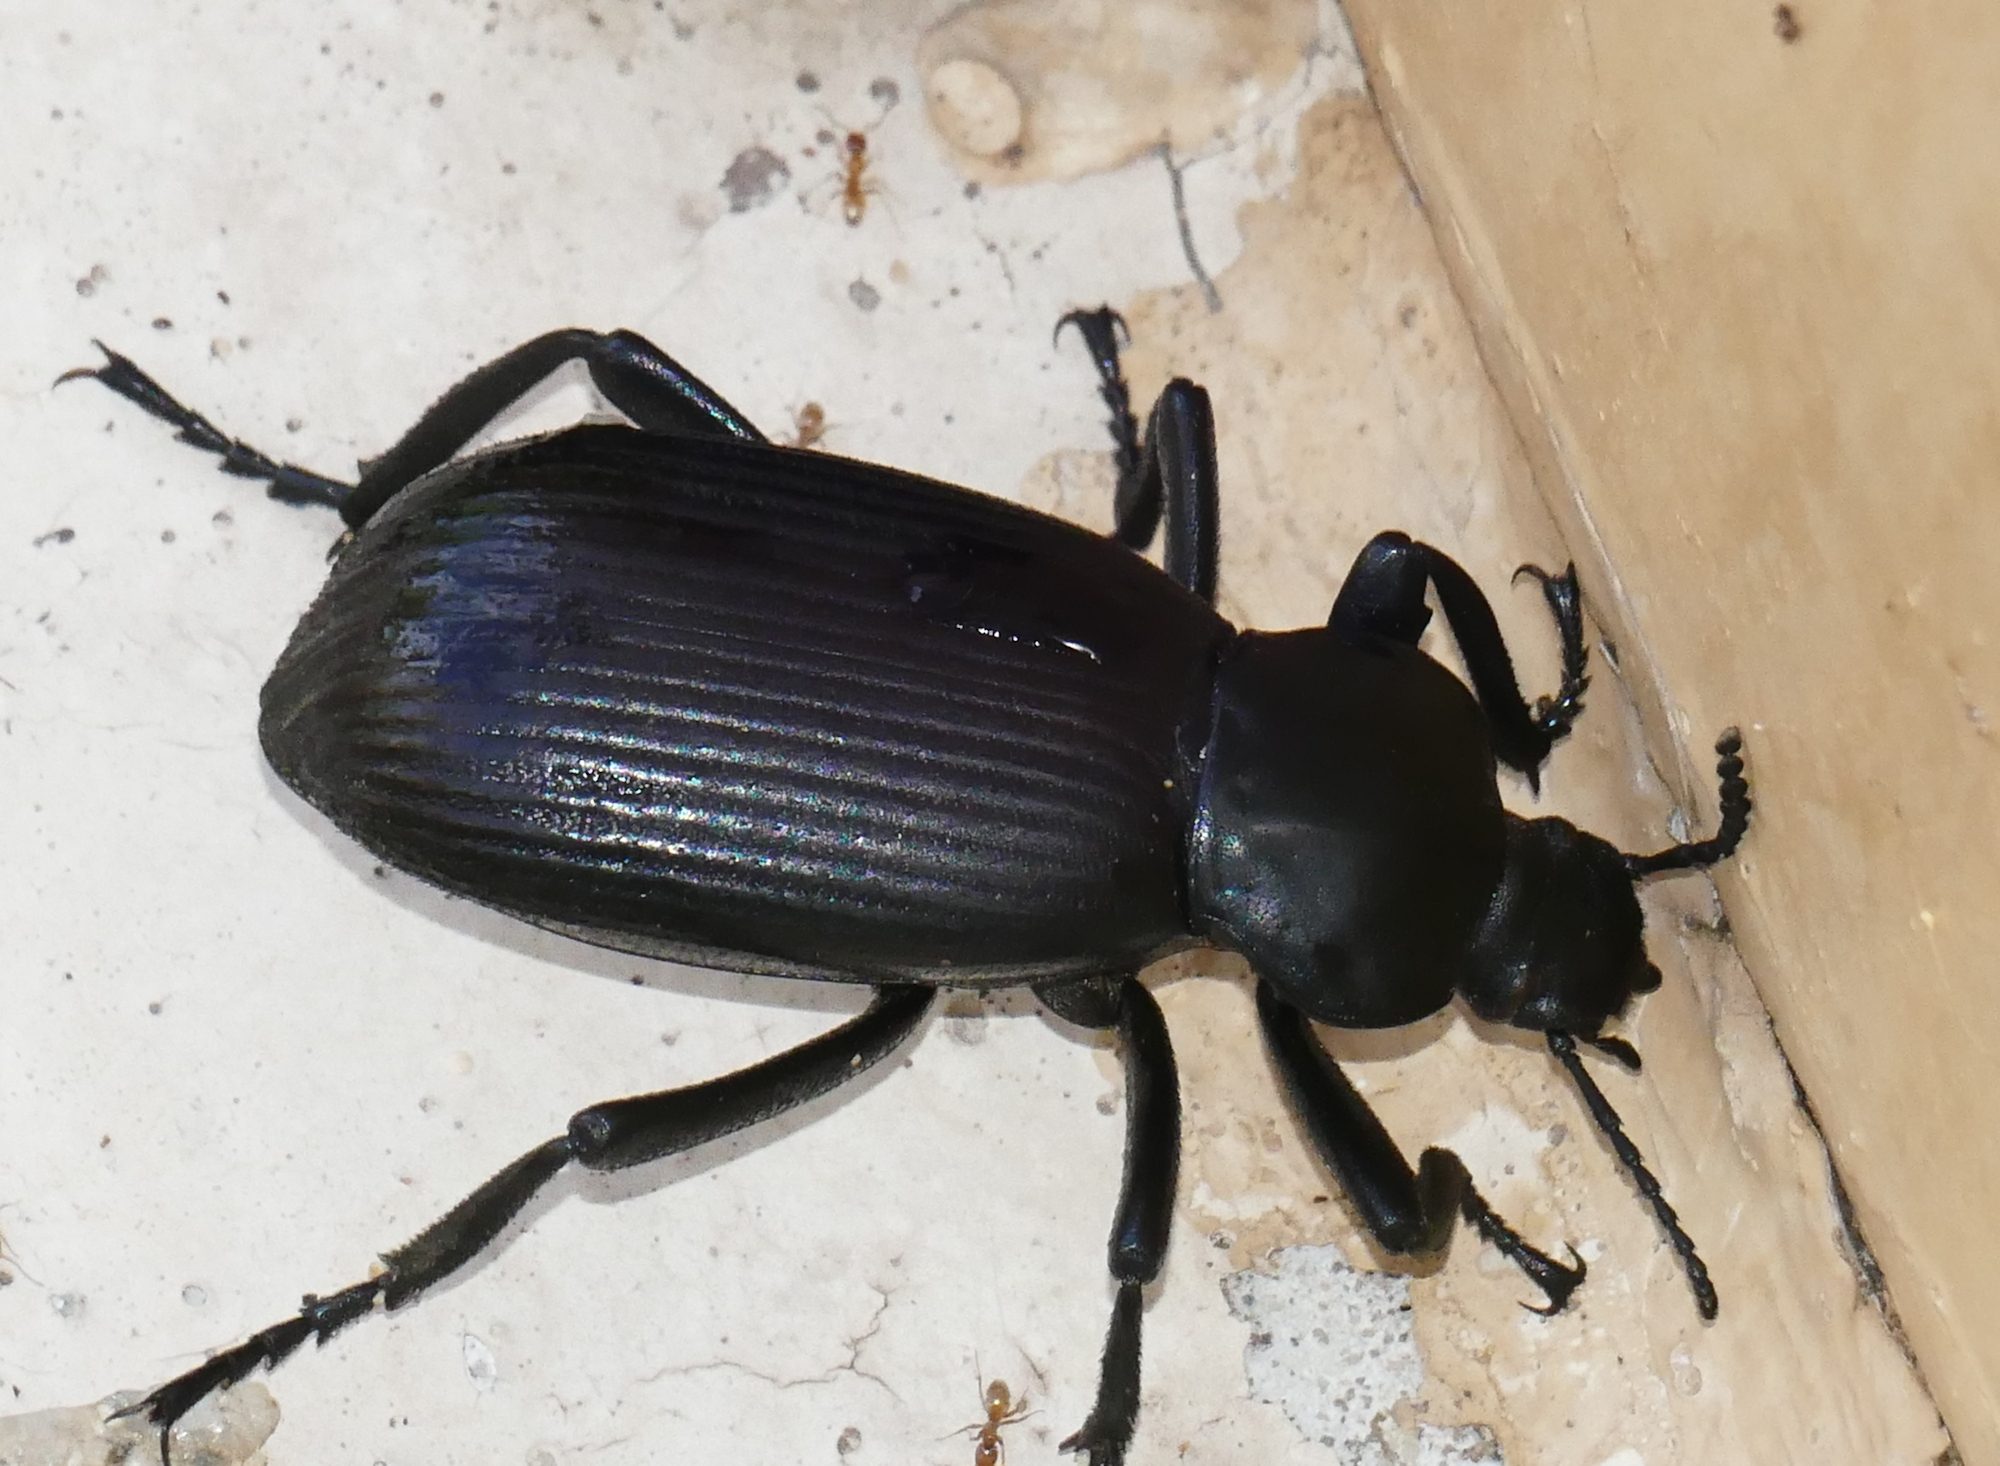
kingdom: Animalia
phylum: Arthropoda
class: Insecta
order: Coleoptera
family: Tenebrionidae
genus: Eleodes
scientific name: Eleodes obscura
